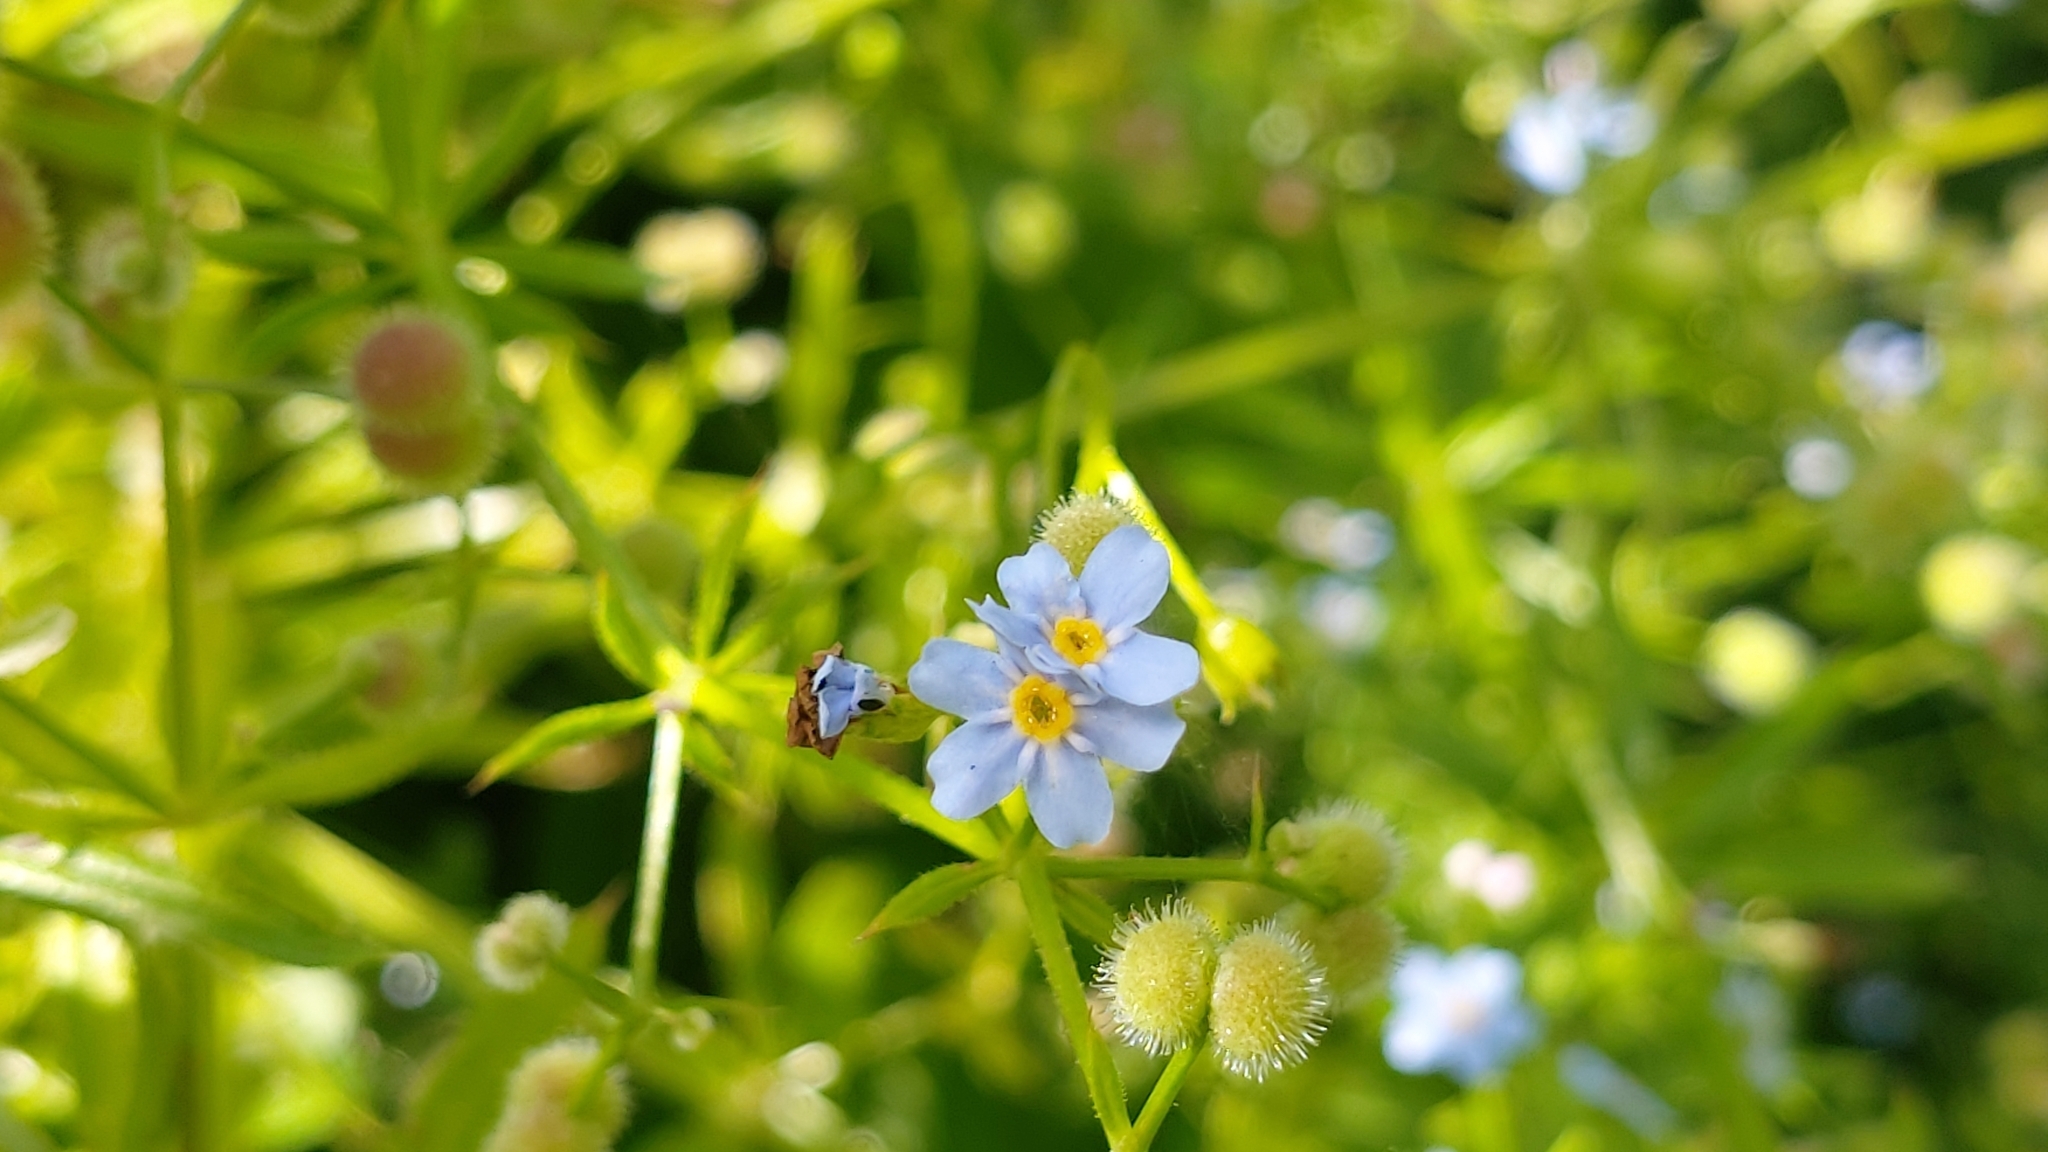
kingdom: Plantae
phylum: Tracheophyta
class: Magnoliopsida
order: Boraginales
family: Boraginaceae
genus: Myosotis
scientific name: Myosotis arvensis
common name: Field forget-me-not
